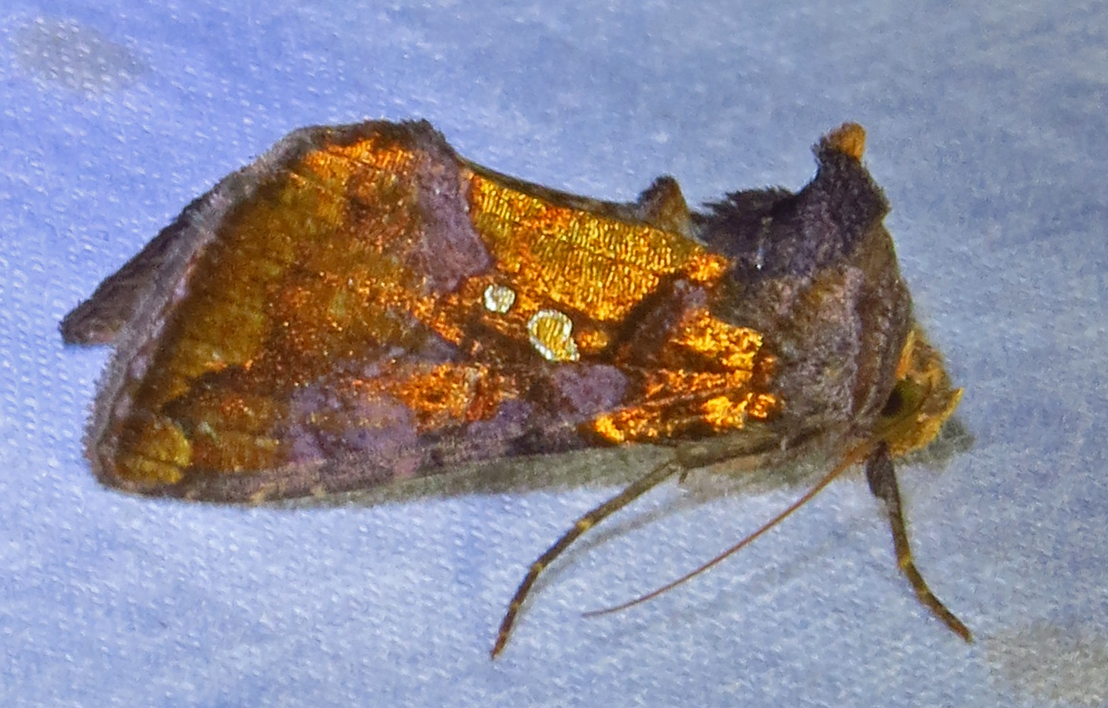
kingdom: Animalia
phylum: Arthropoda
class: Insecta
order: Lepidoptera
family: Noctuidae
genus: Argyrogramma
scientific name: Argyrogramma verruca
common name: Golden looper moth
